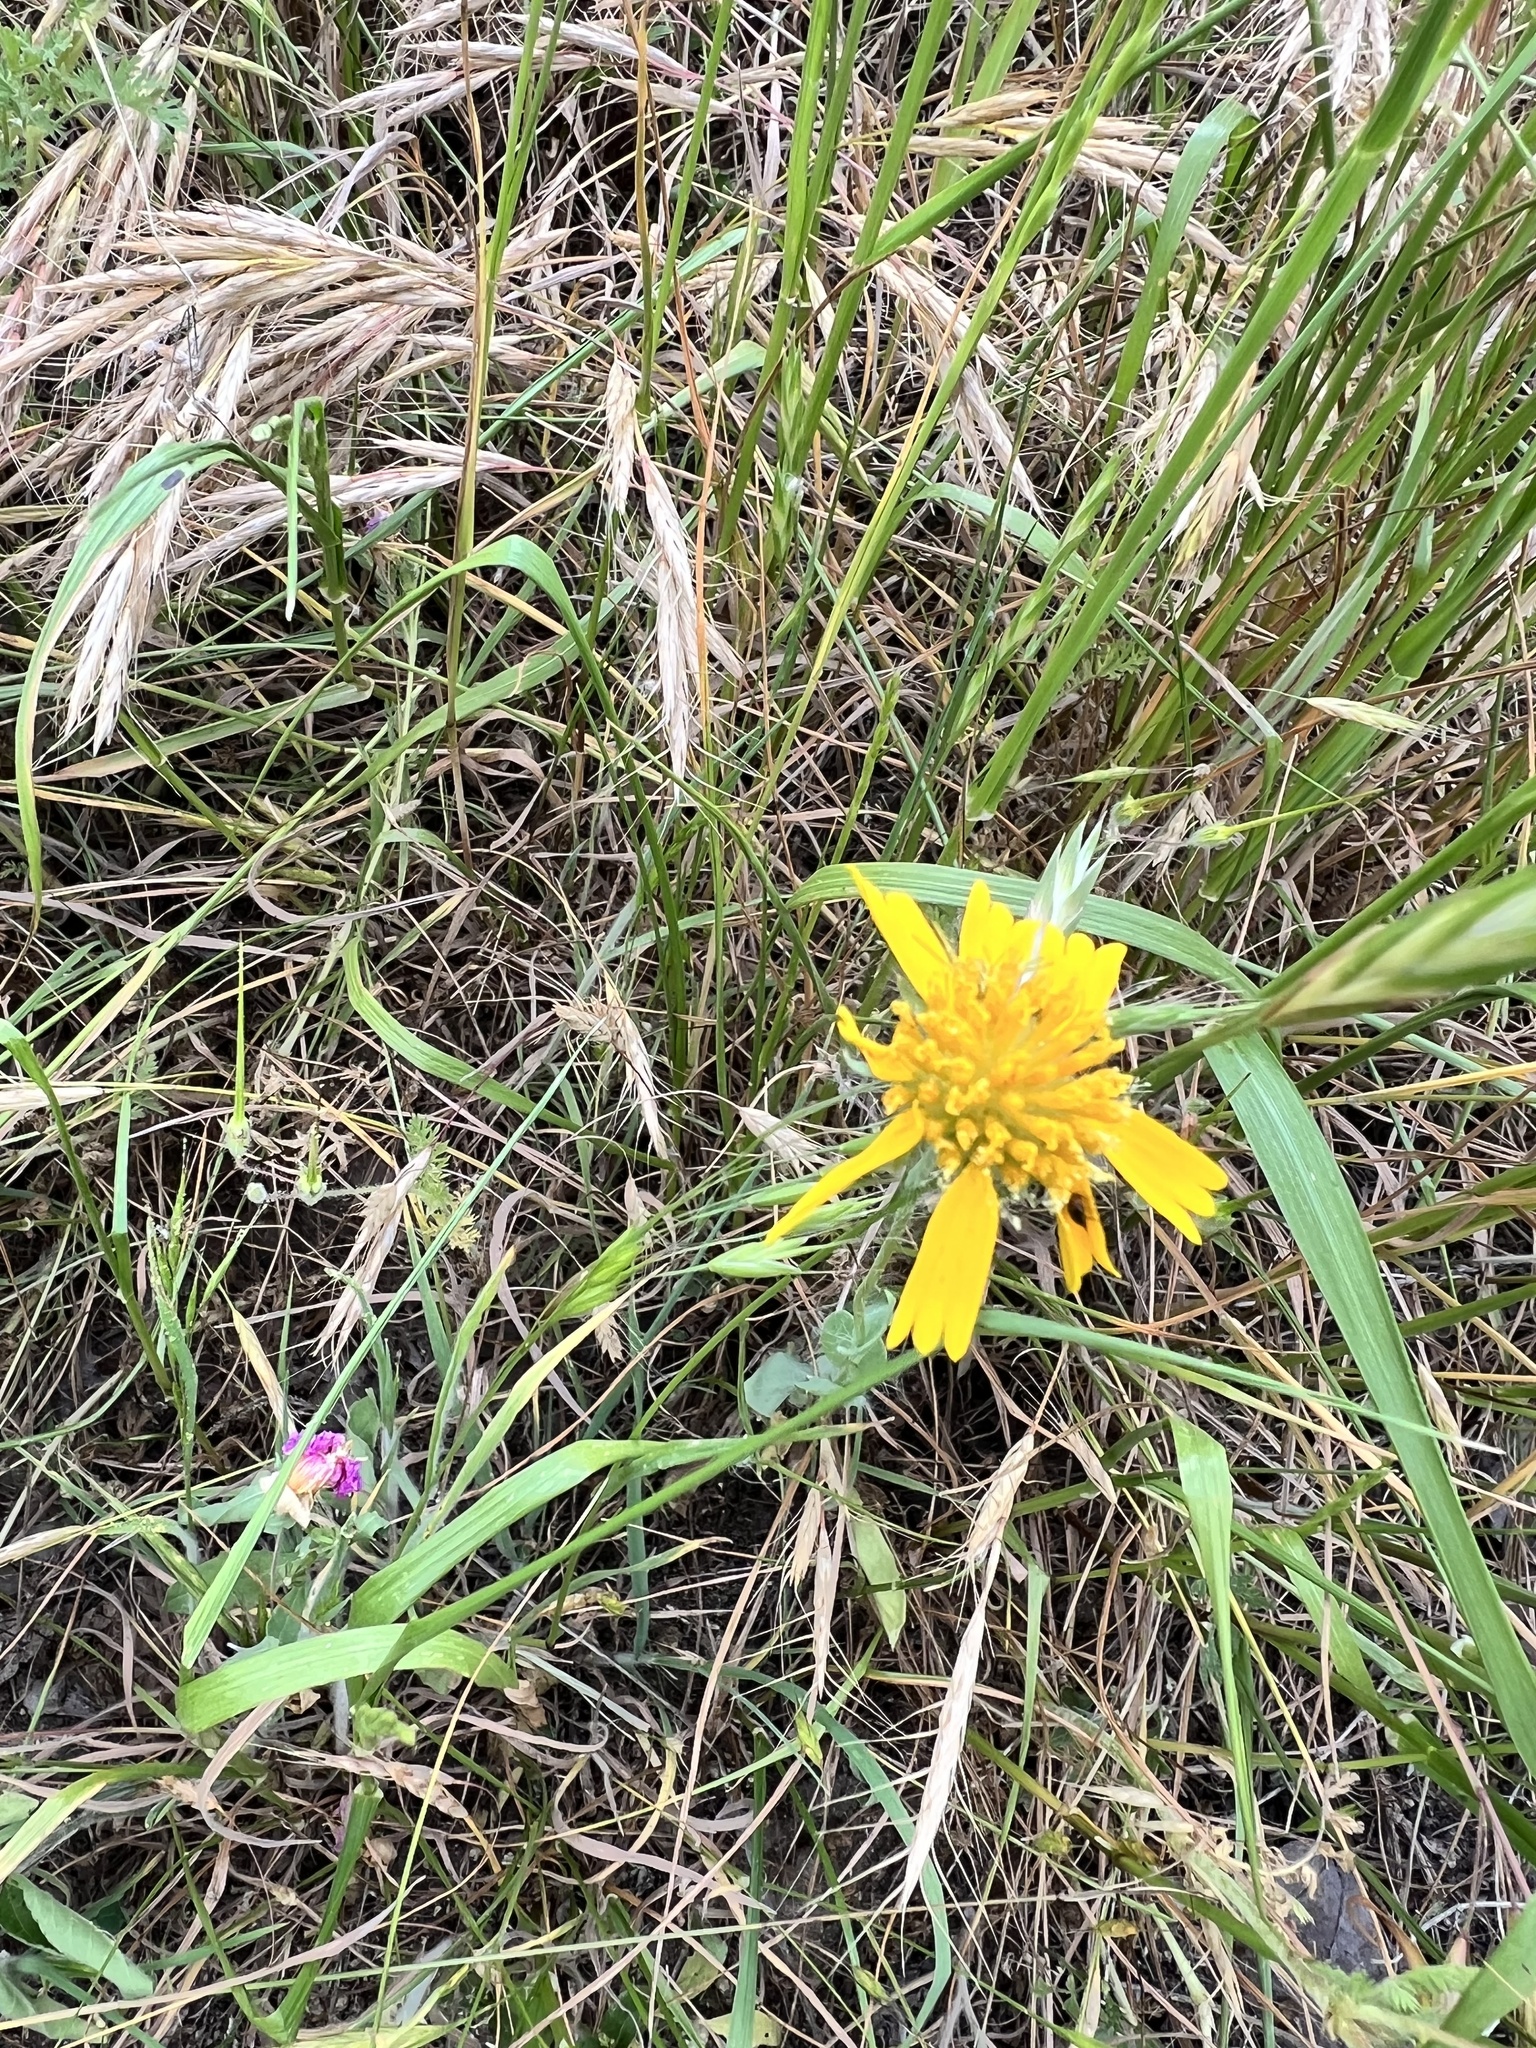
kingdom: Plantae
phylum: Tracheophyta
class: Magnoliopsida
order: Asterales
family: Asteraceae
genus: Amblyolepis
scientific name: Amblyolepis setigera
